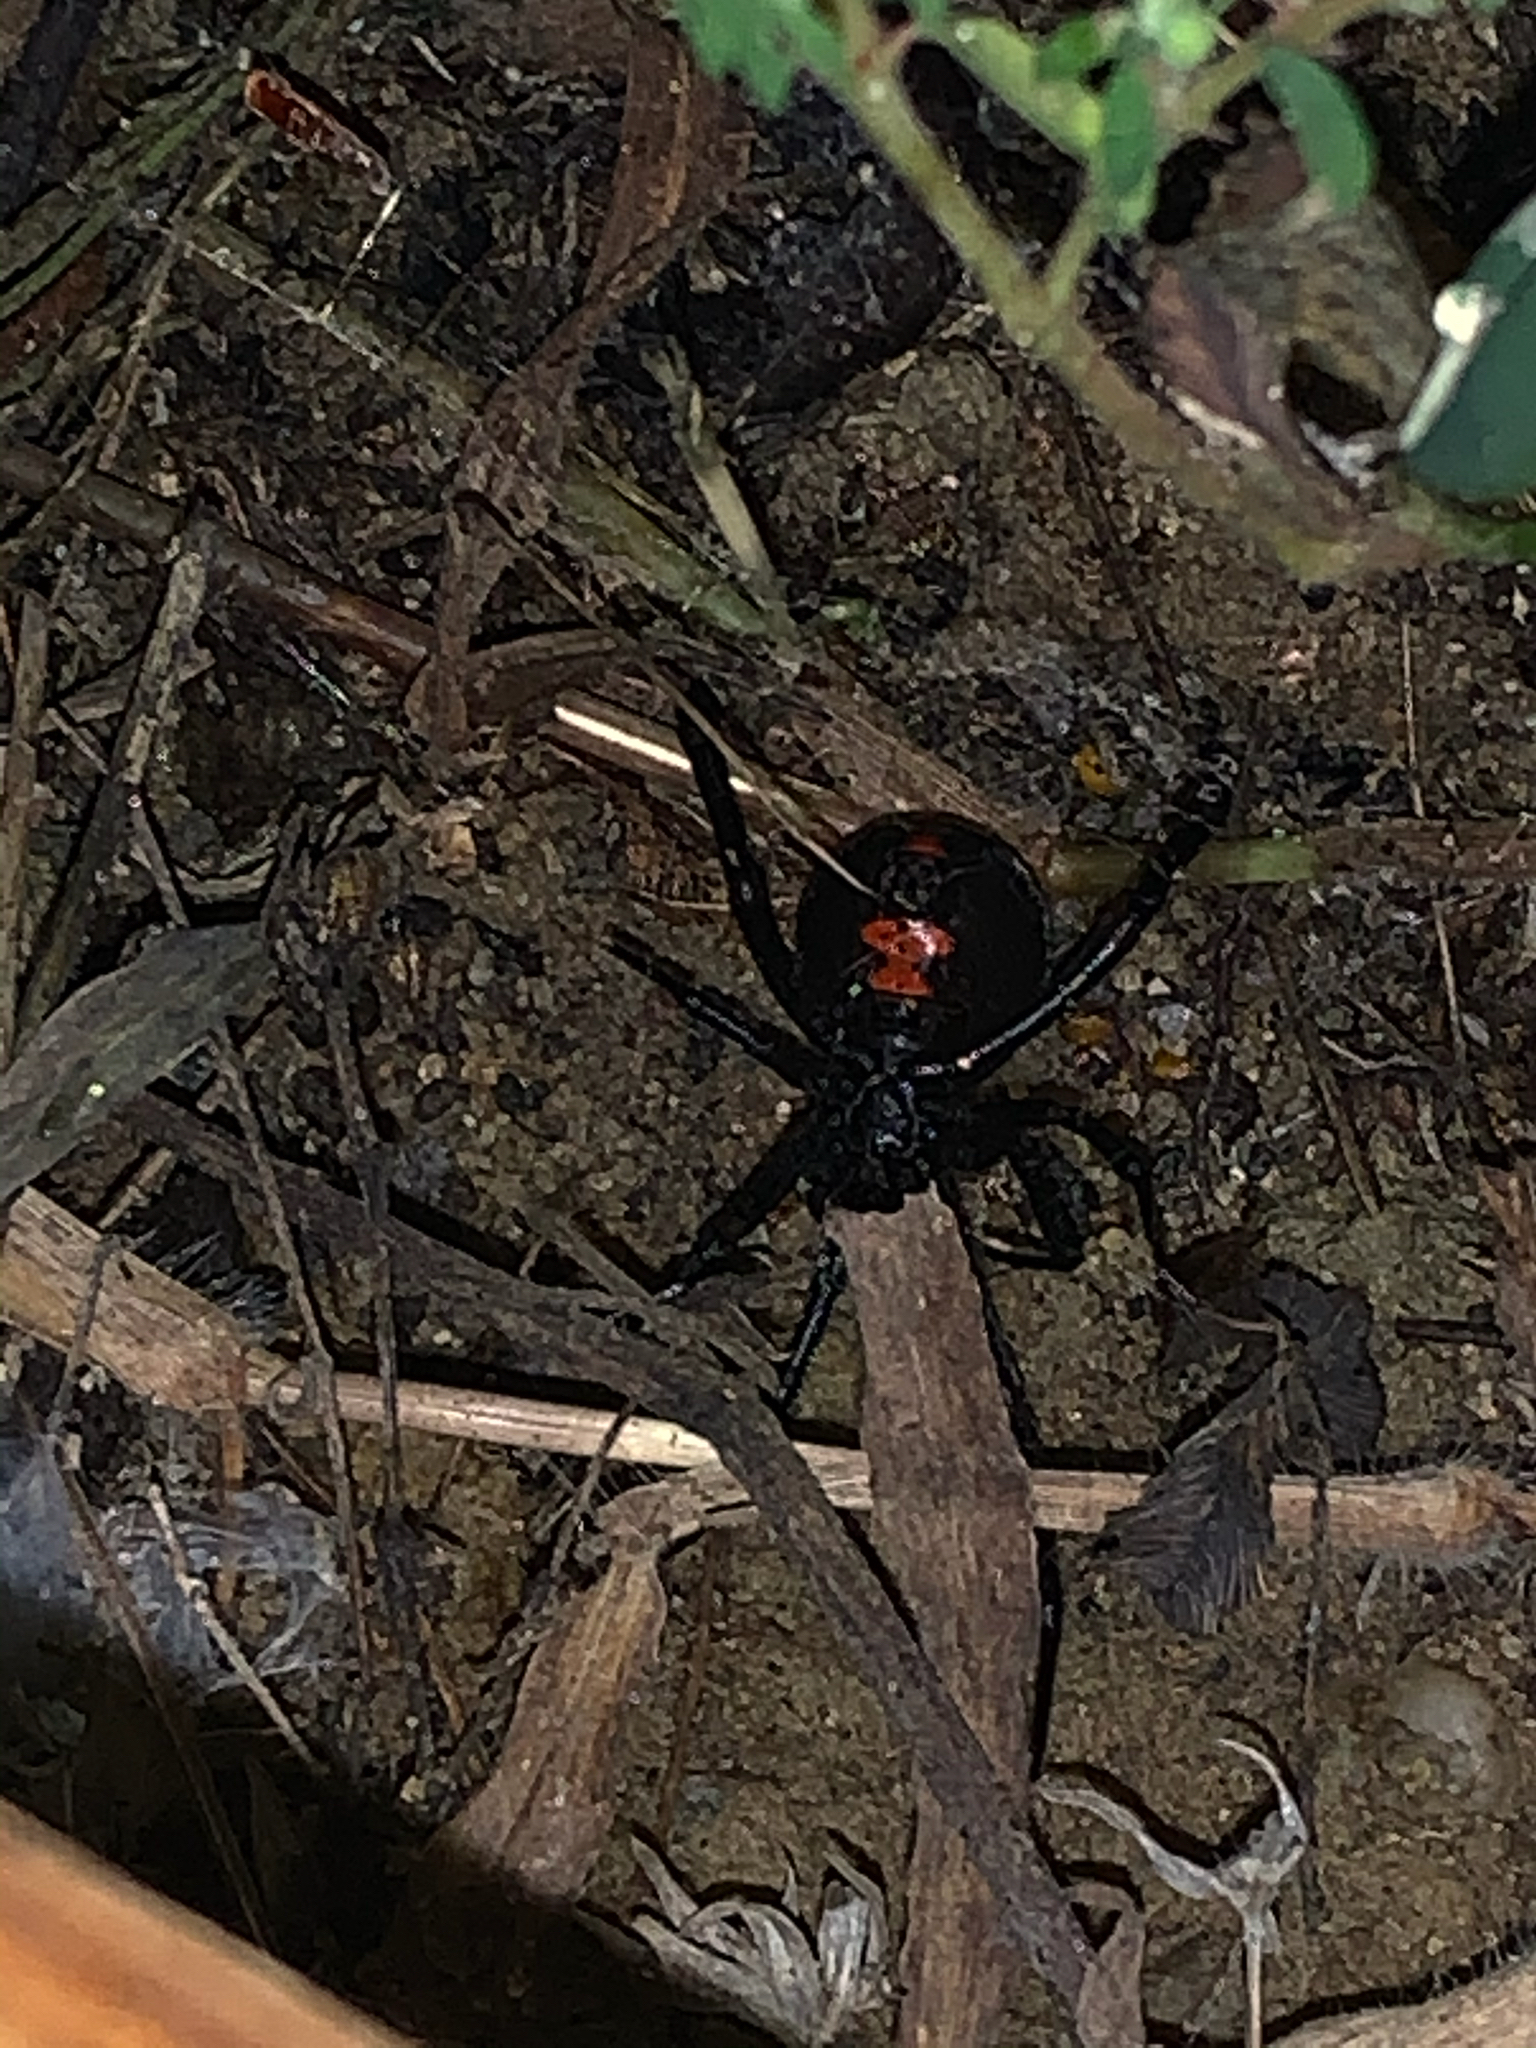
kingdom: Animalia
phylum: Arthropoda
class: Arachnida
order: Araneae
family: Theridiidae
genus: Latrodectus
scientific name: Latrodectus mactans
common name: Cobweb spiders
